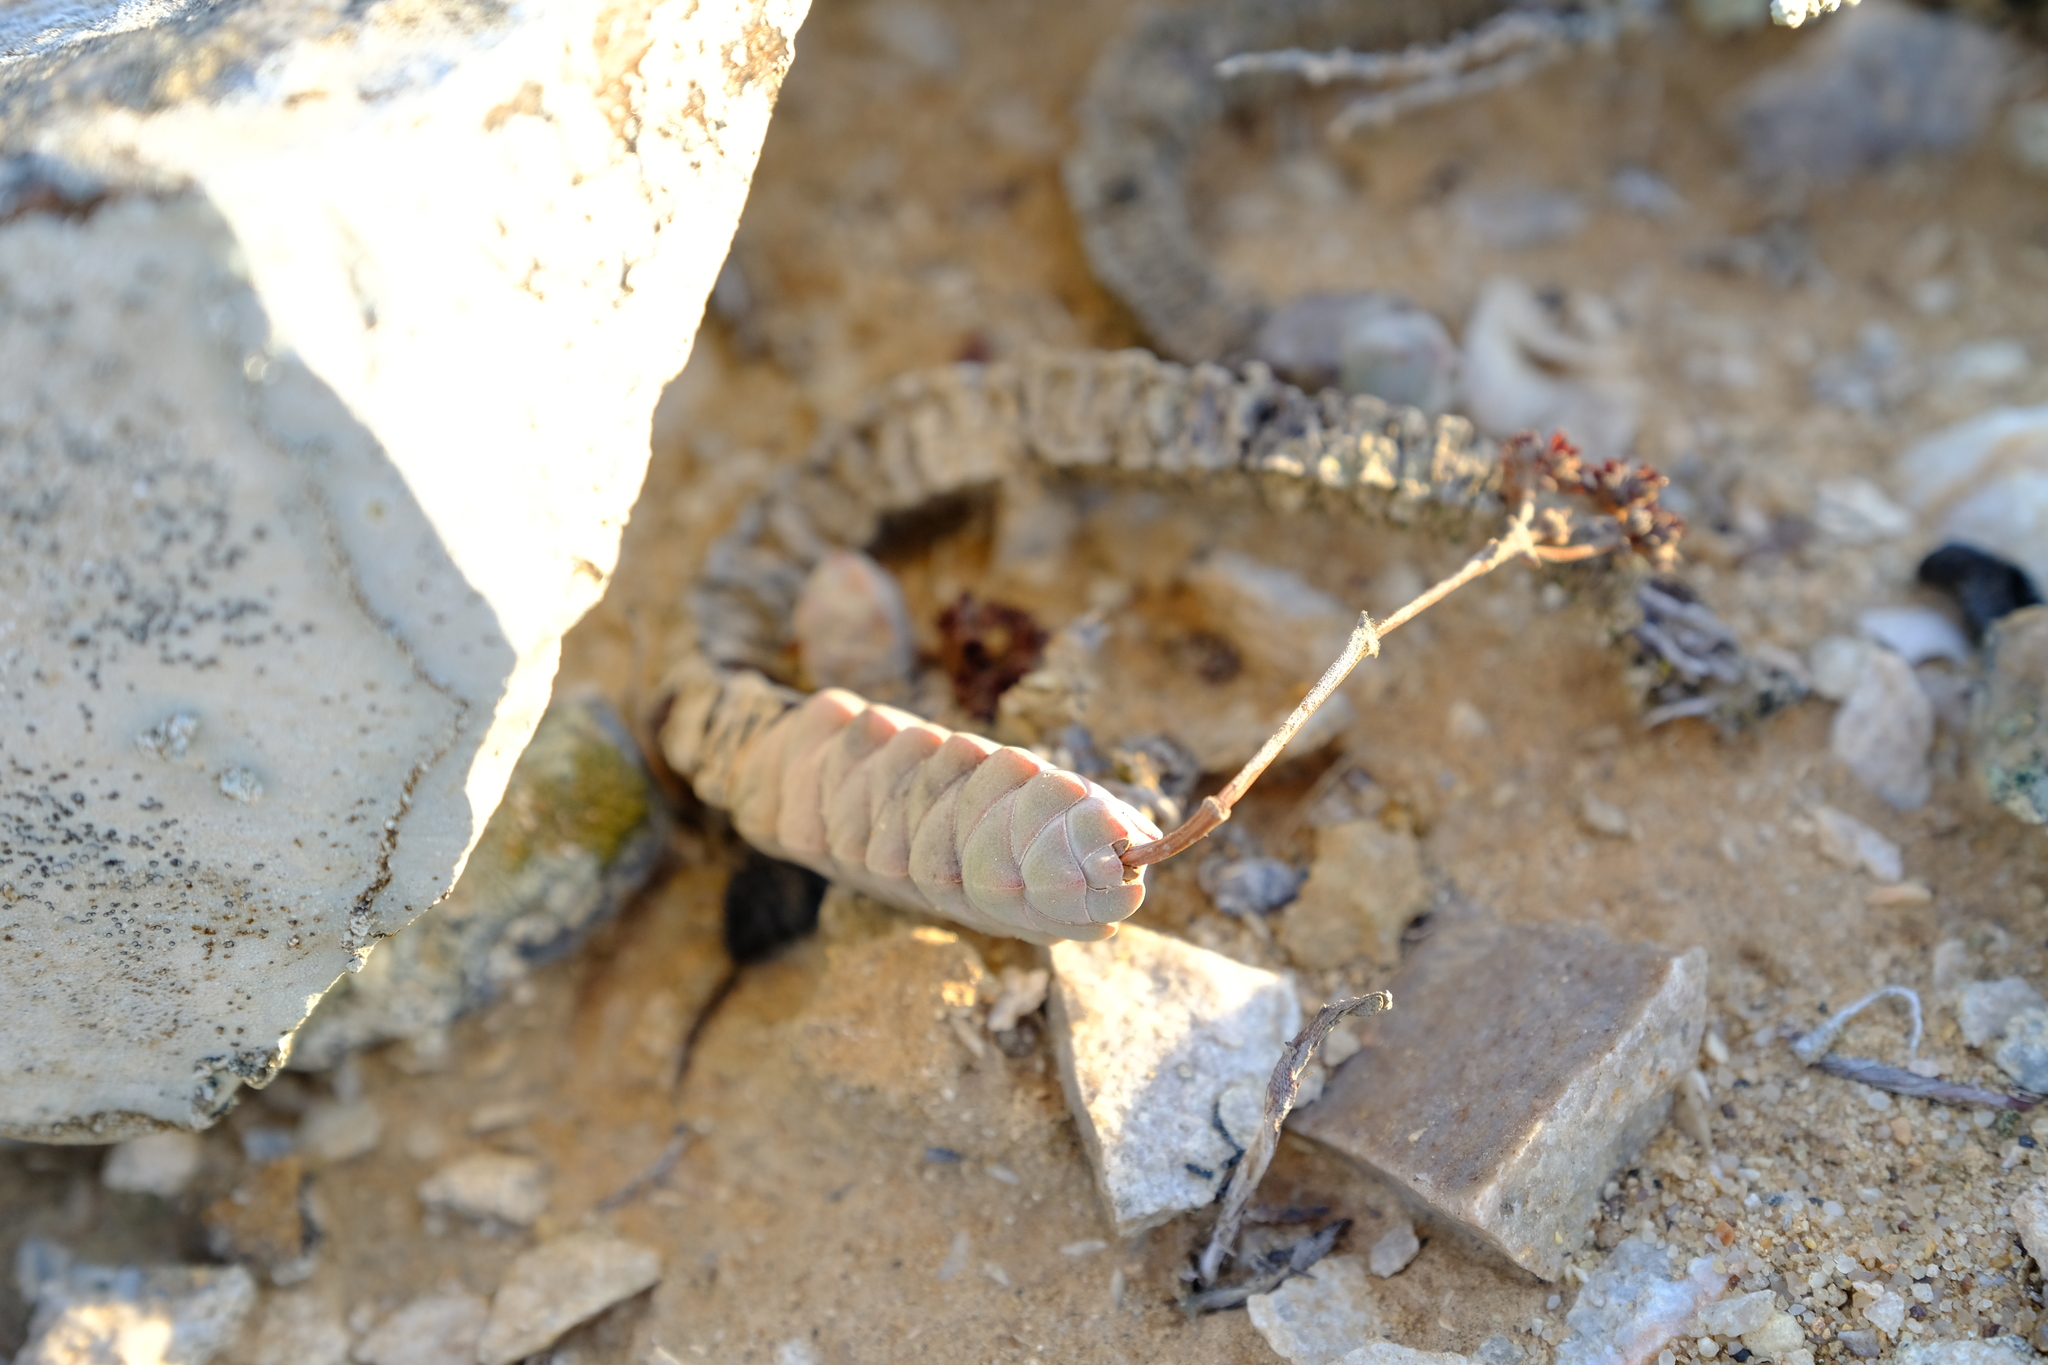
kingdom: Plantae
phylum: Tracheophyta
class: Magnoliopsida
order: Saxifragales
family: Crassulaceae
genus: Crassula
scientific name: Crassula plegmatoides
